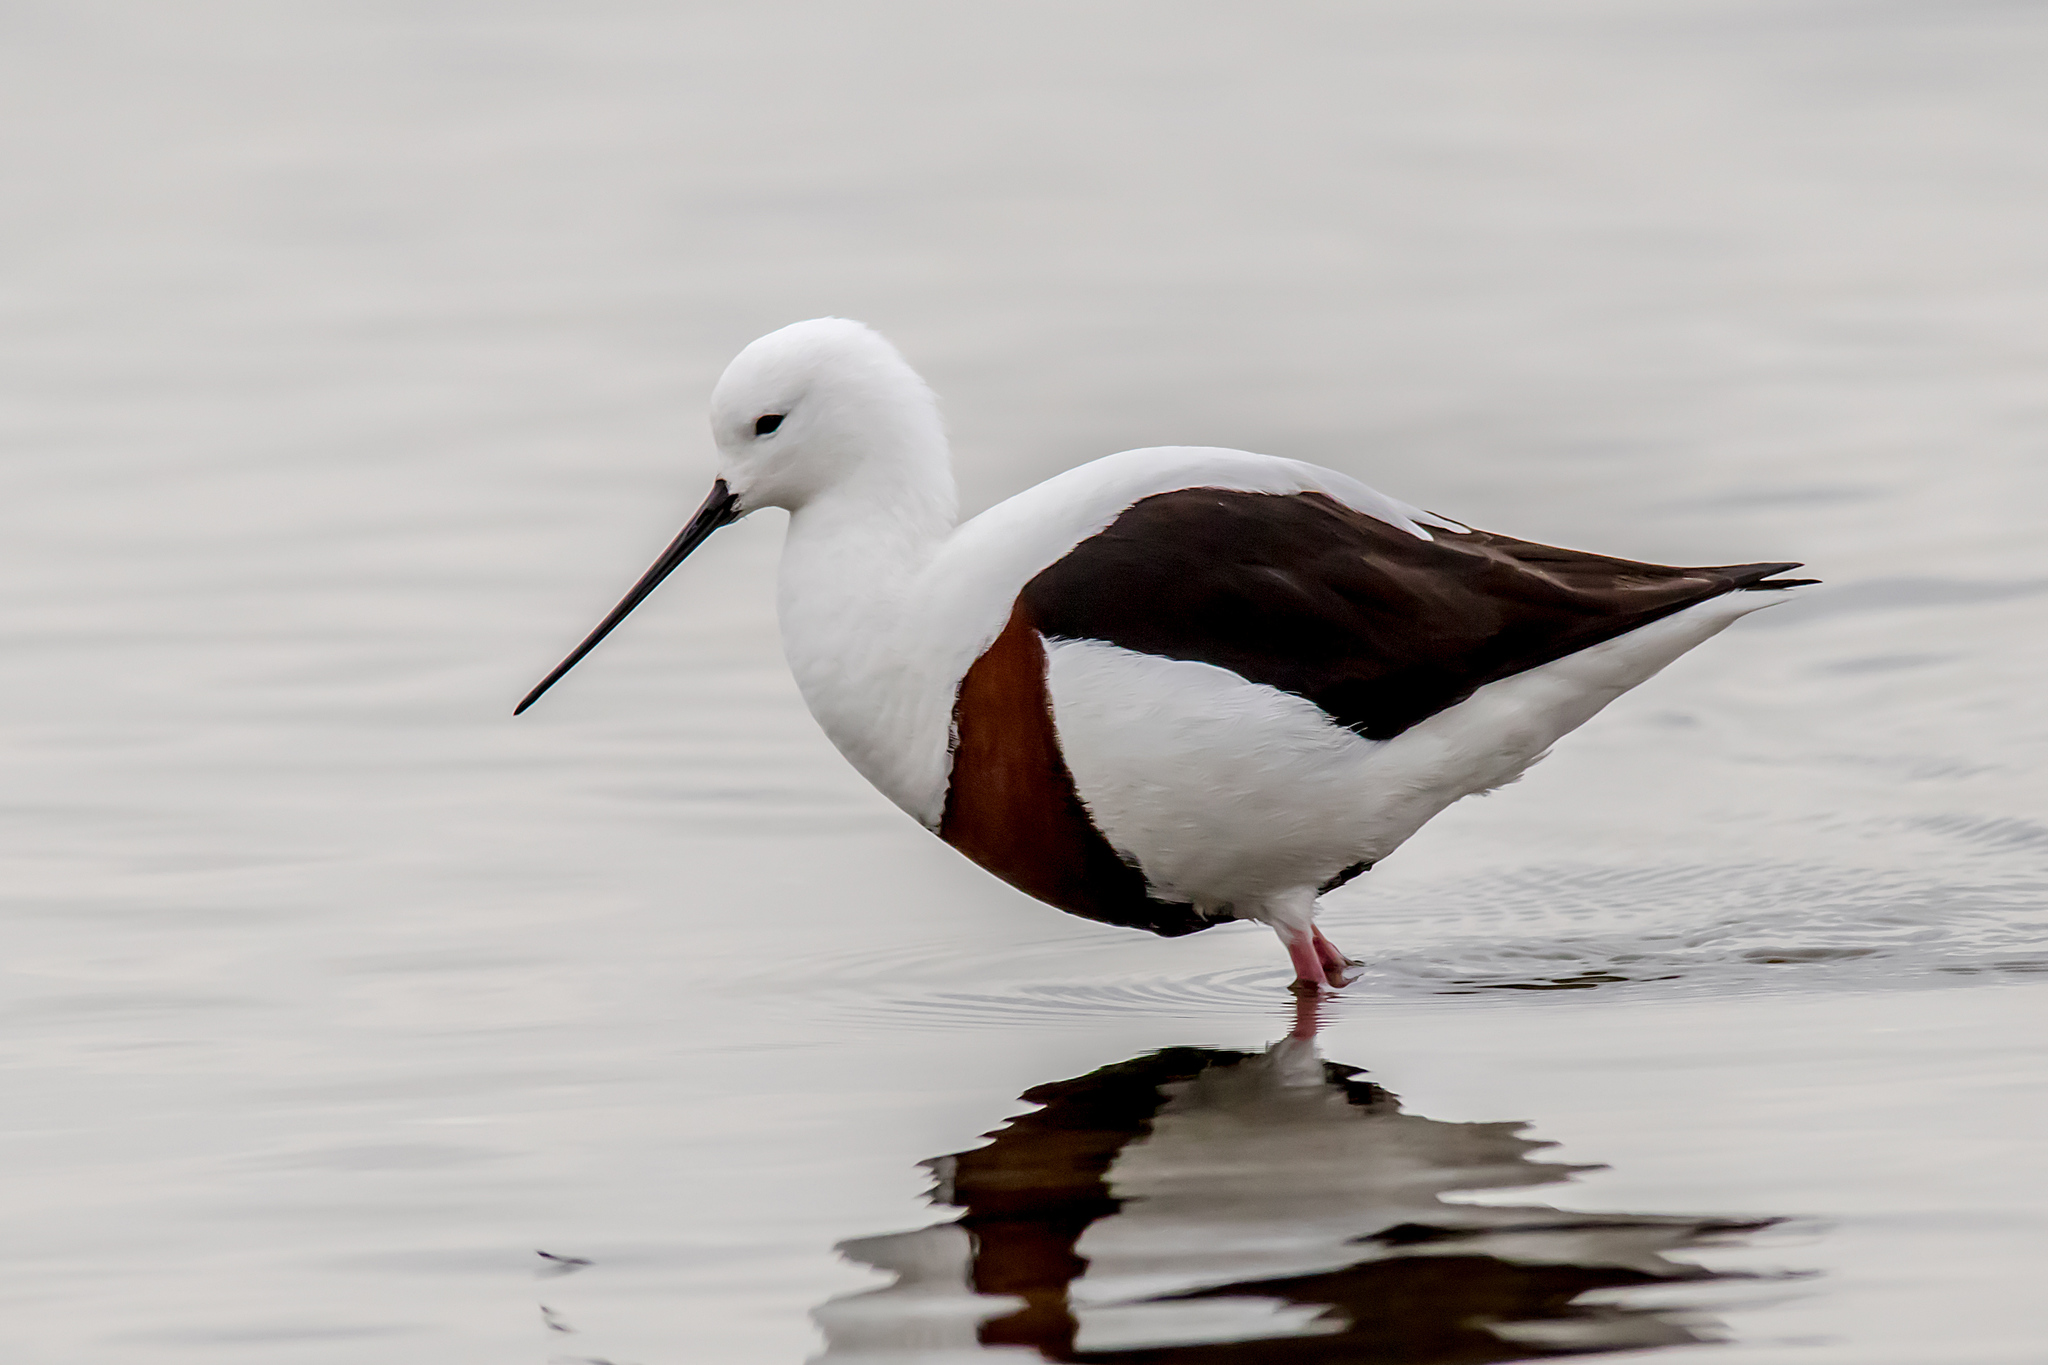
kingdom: Animalia
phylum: Chordata
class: Aves
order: Charadriiformes
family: Recurvirostridae
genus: Cladorhynchus
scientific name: Cladorhynchus leucocephalus
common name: Banded stilt
